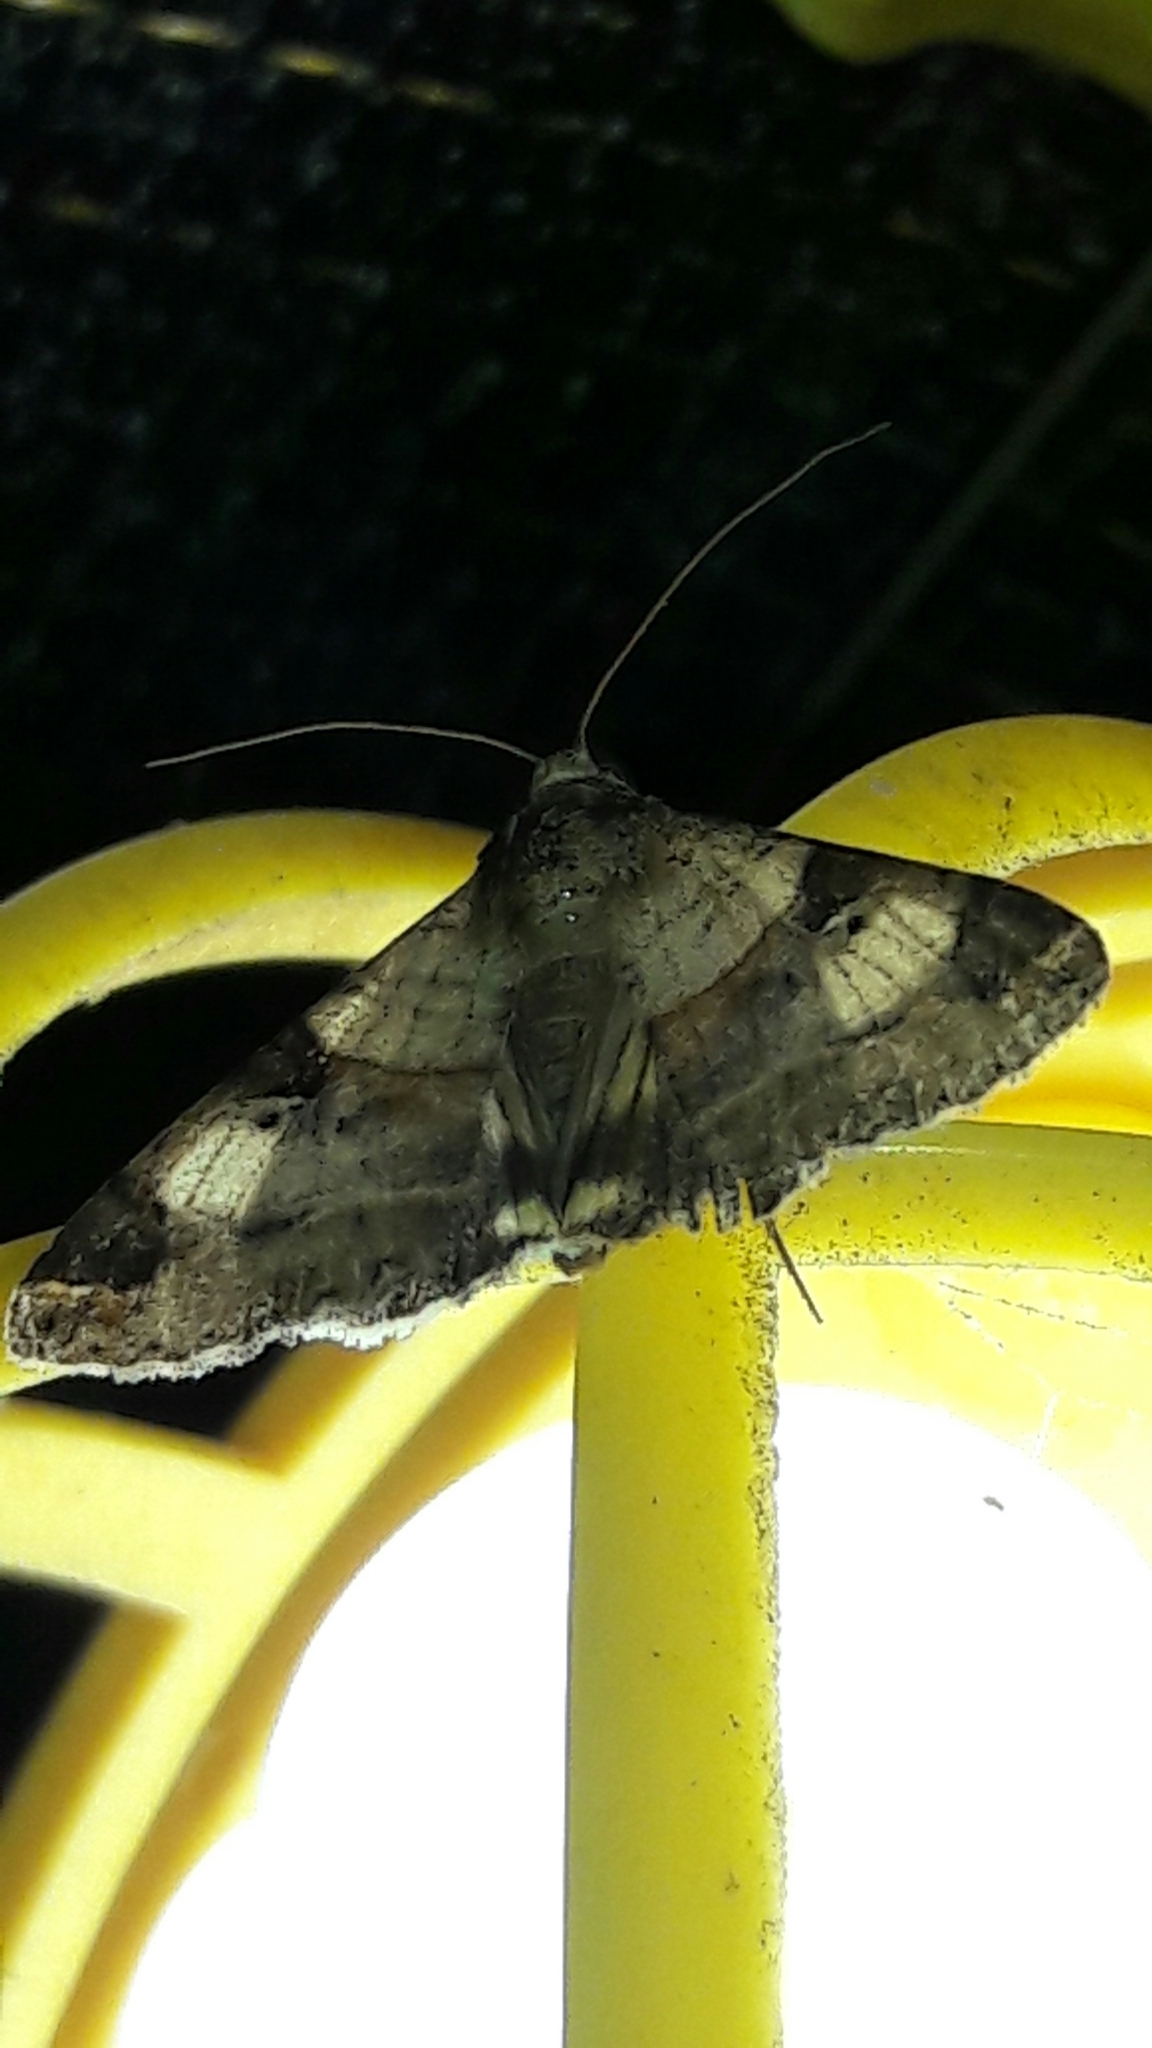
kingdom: Animalia
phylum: Arthropoda
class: Insecta
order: Lepidoptera
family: Erebidae
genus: Melipotis
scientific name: Melipotis fasciolaris
